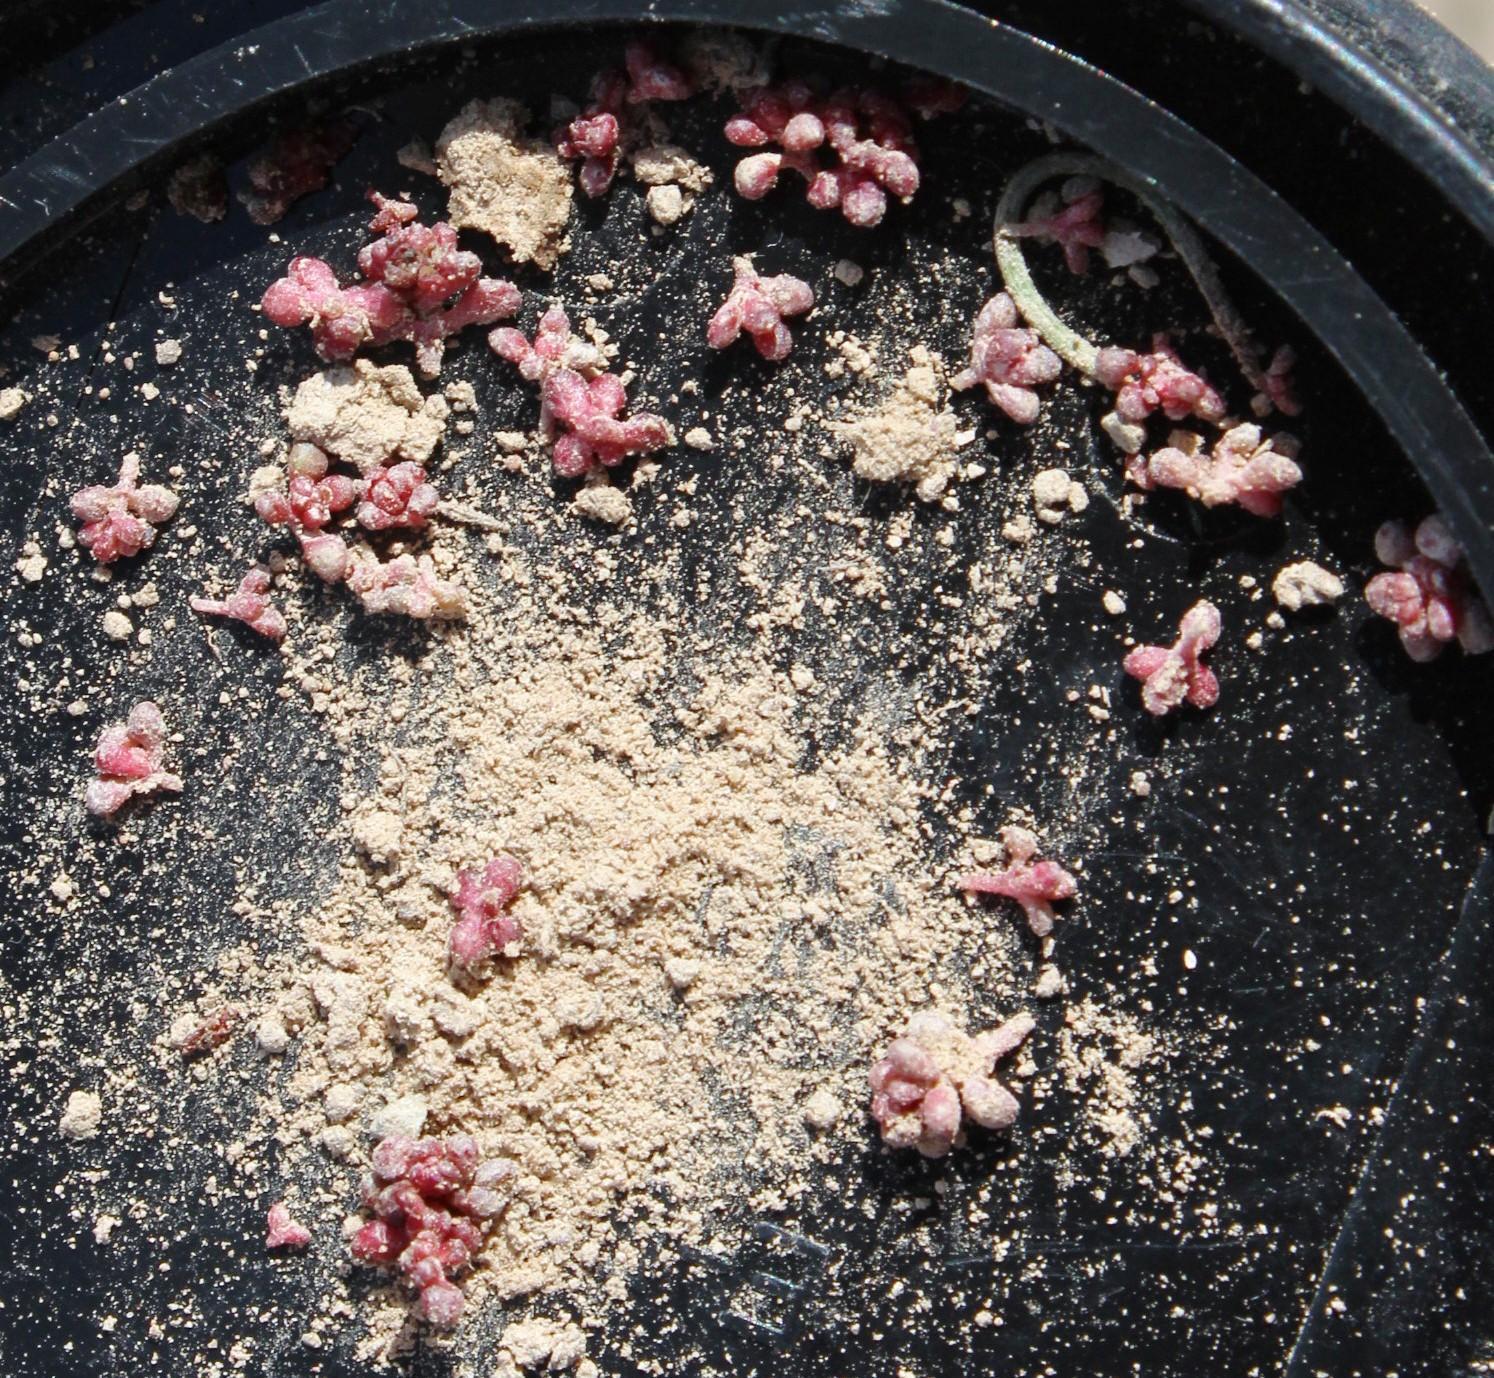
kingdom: Plantae
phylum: Tracheophyta
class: Magnoliopsida
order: Saxifragales
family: Crassulaceae
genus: Crassula
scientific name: Crassula umbellata
